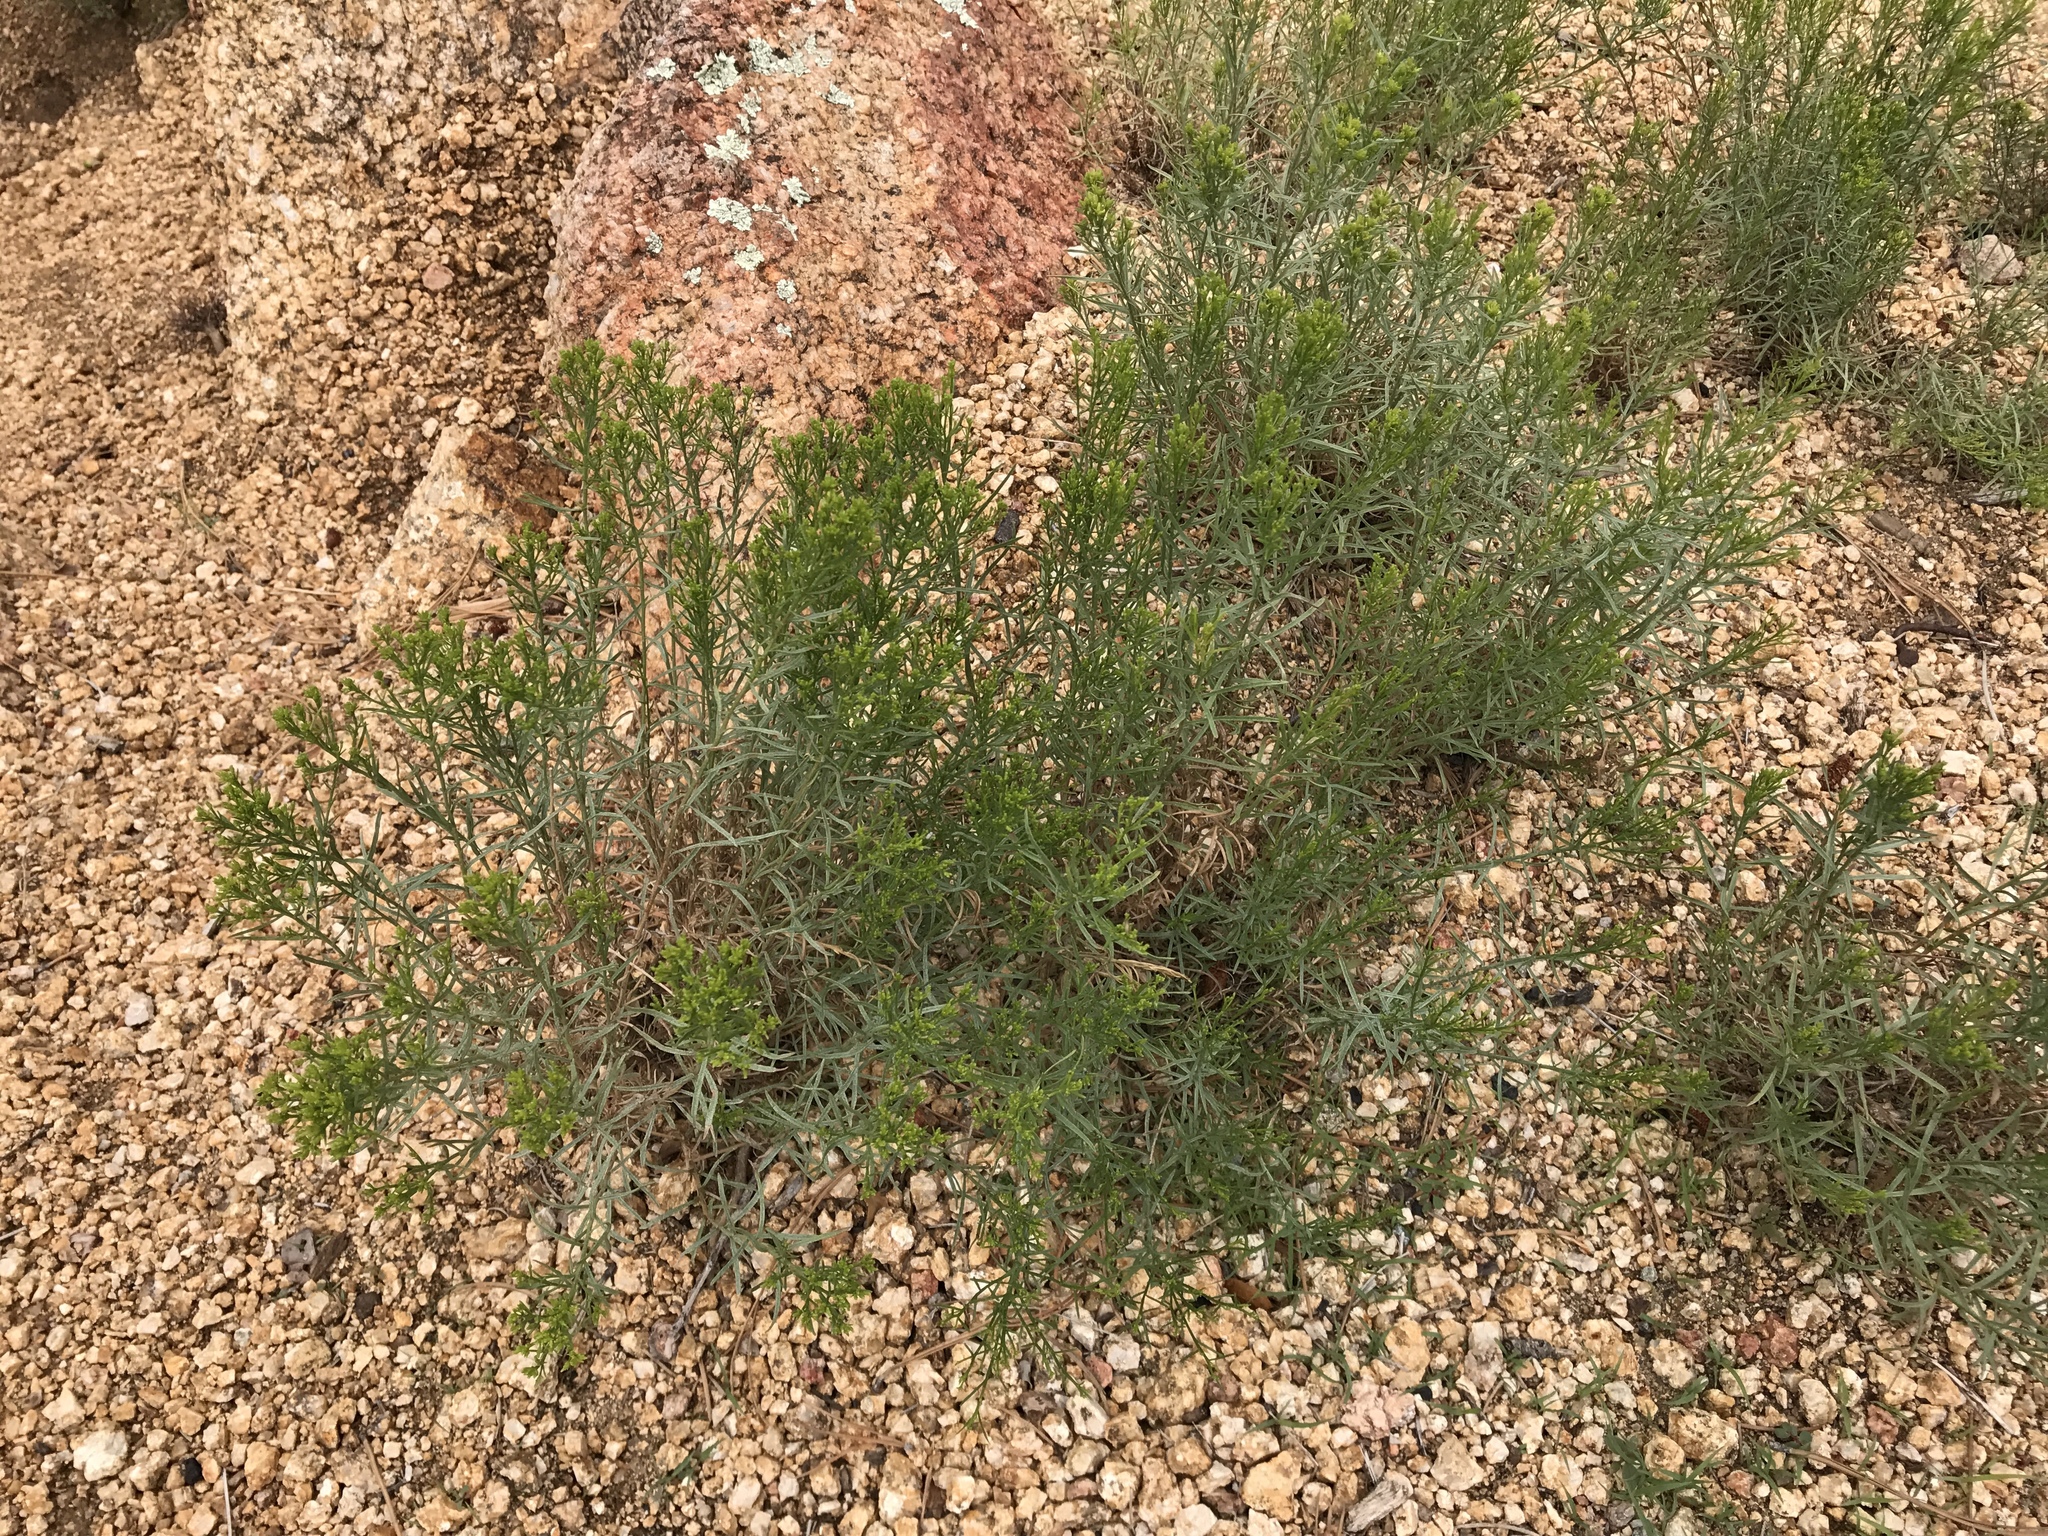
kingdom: Plantae
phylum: Tracheophyta
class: Magnoliopsida
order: Asterales
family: Asteraceae
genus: Gutierrezia
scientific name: Gutierrezia sarothrae
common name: Broom snakeweed
